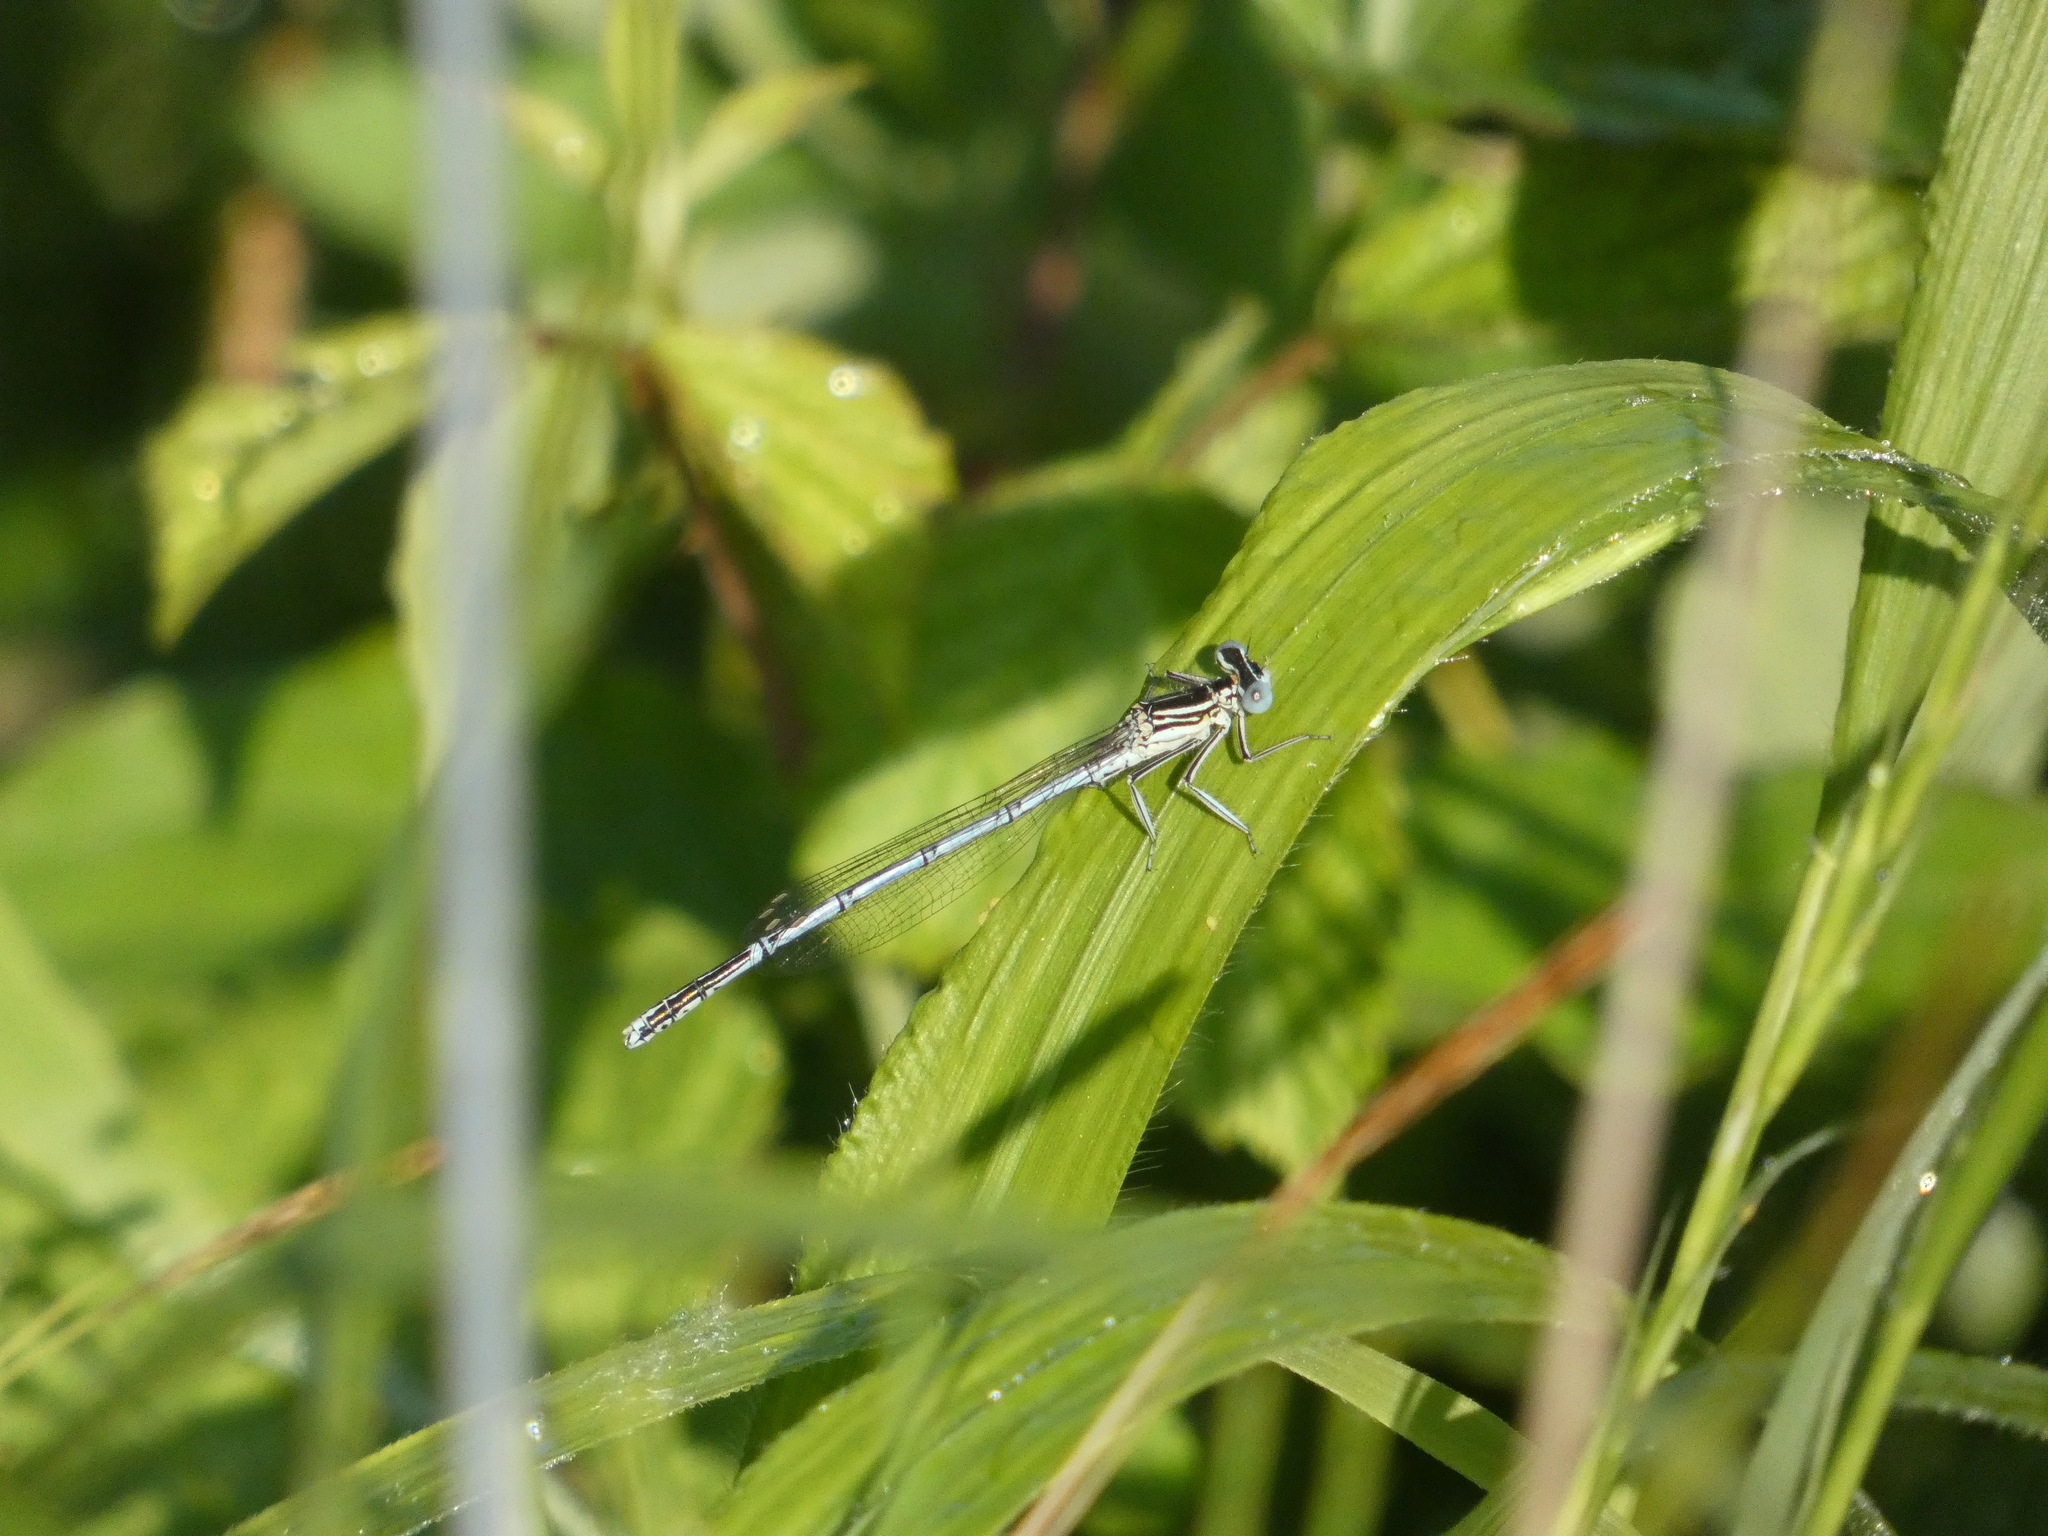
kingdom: Animalia
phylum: Arthropoda
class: Insecta
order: Odonata
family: Platycnemididae
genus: Platycnemis
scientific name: Platycnemis pennipes
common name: White-legged damselfly
